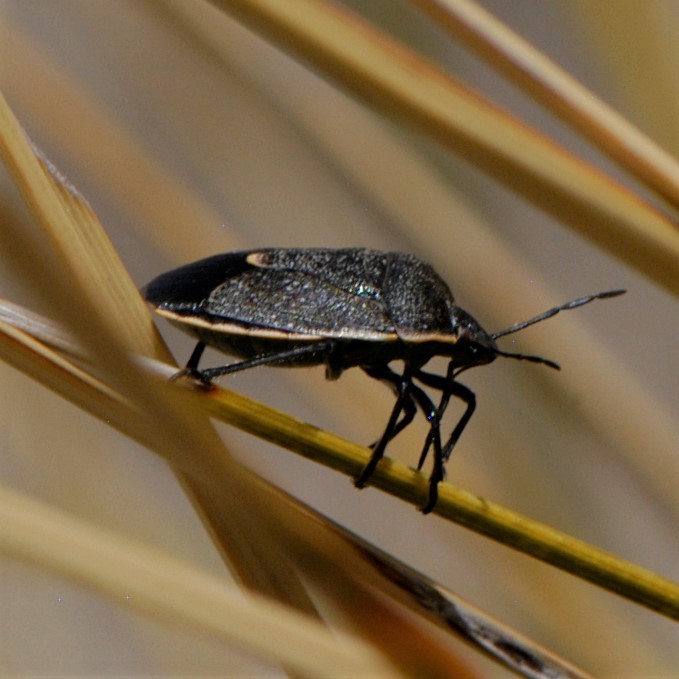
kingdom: Animalia
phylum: Arthropoda
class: Insecta
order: Hemiptera
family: Pentatomidae
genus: Chlorochroa
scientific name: Chlorochroa ligata
